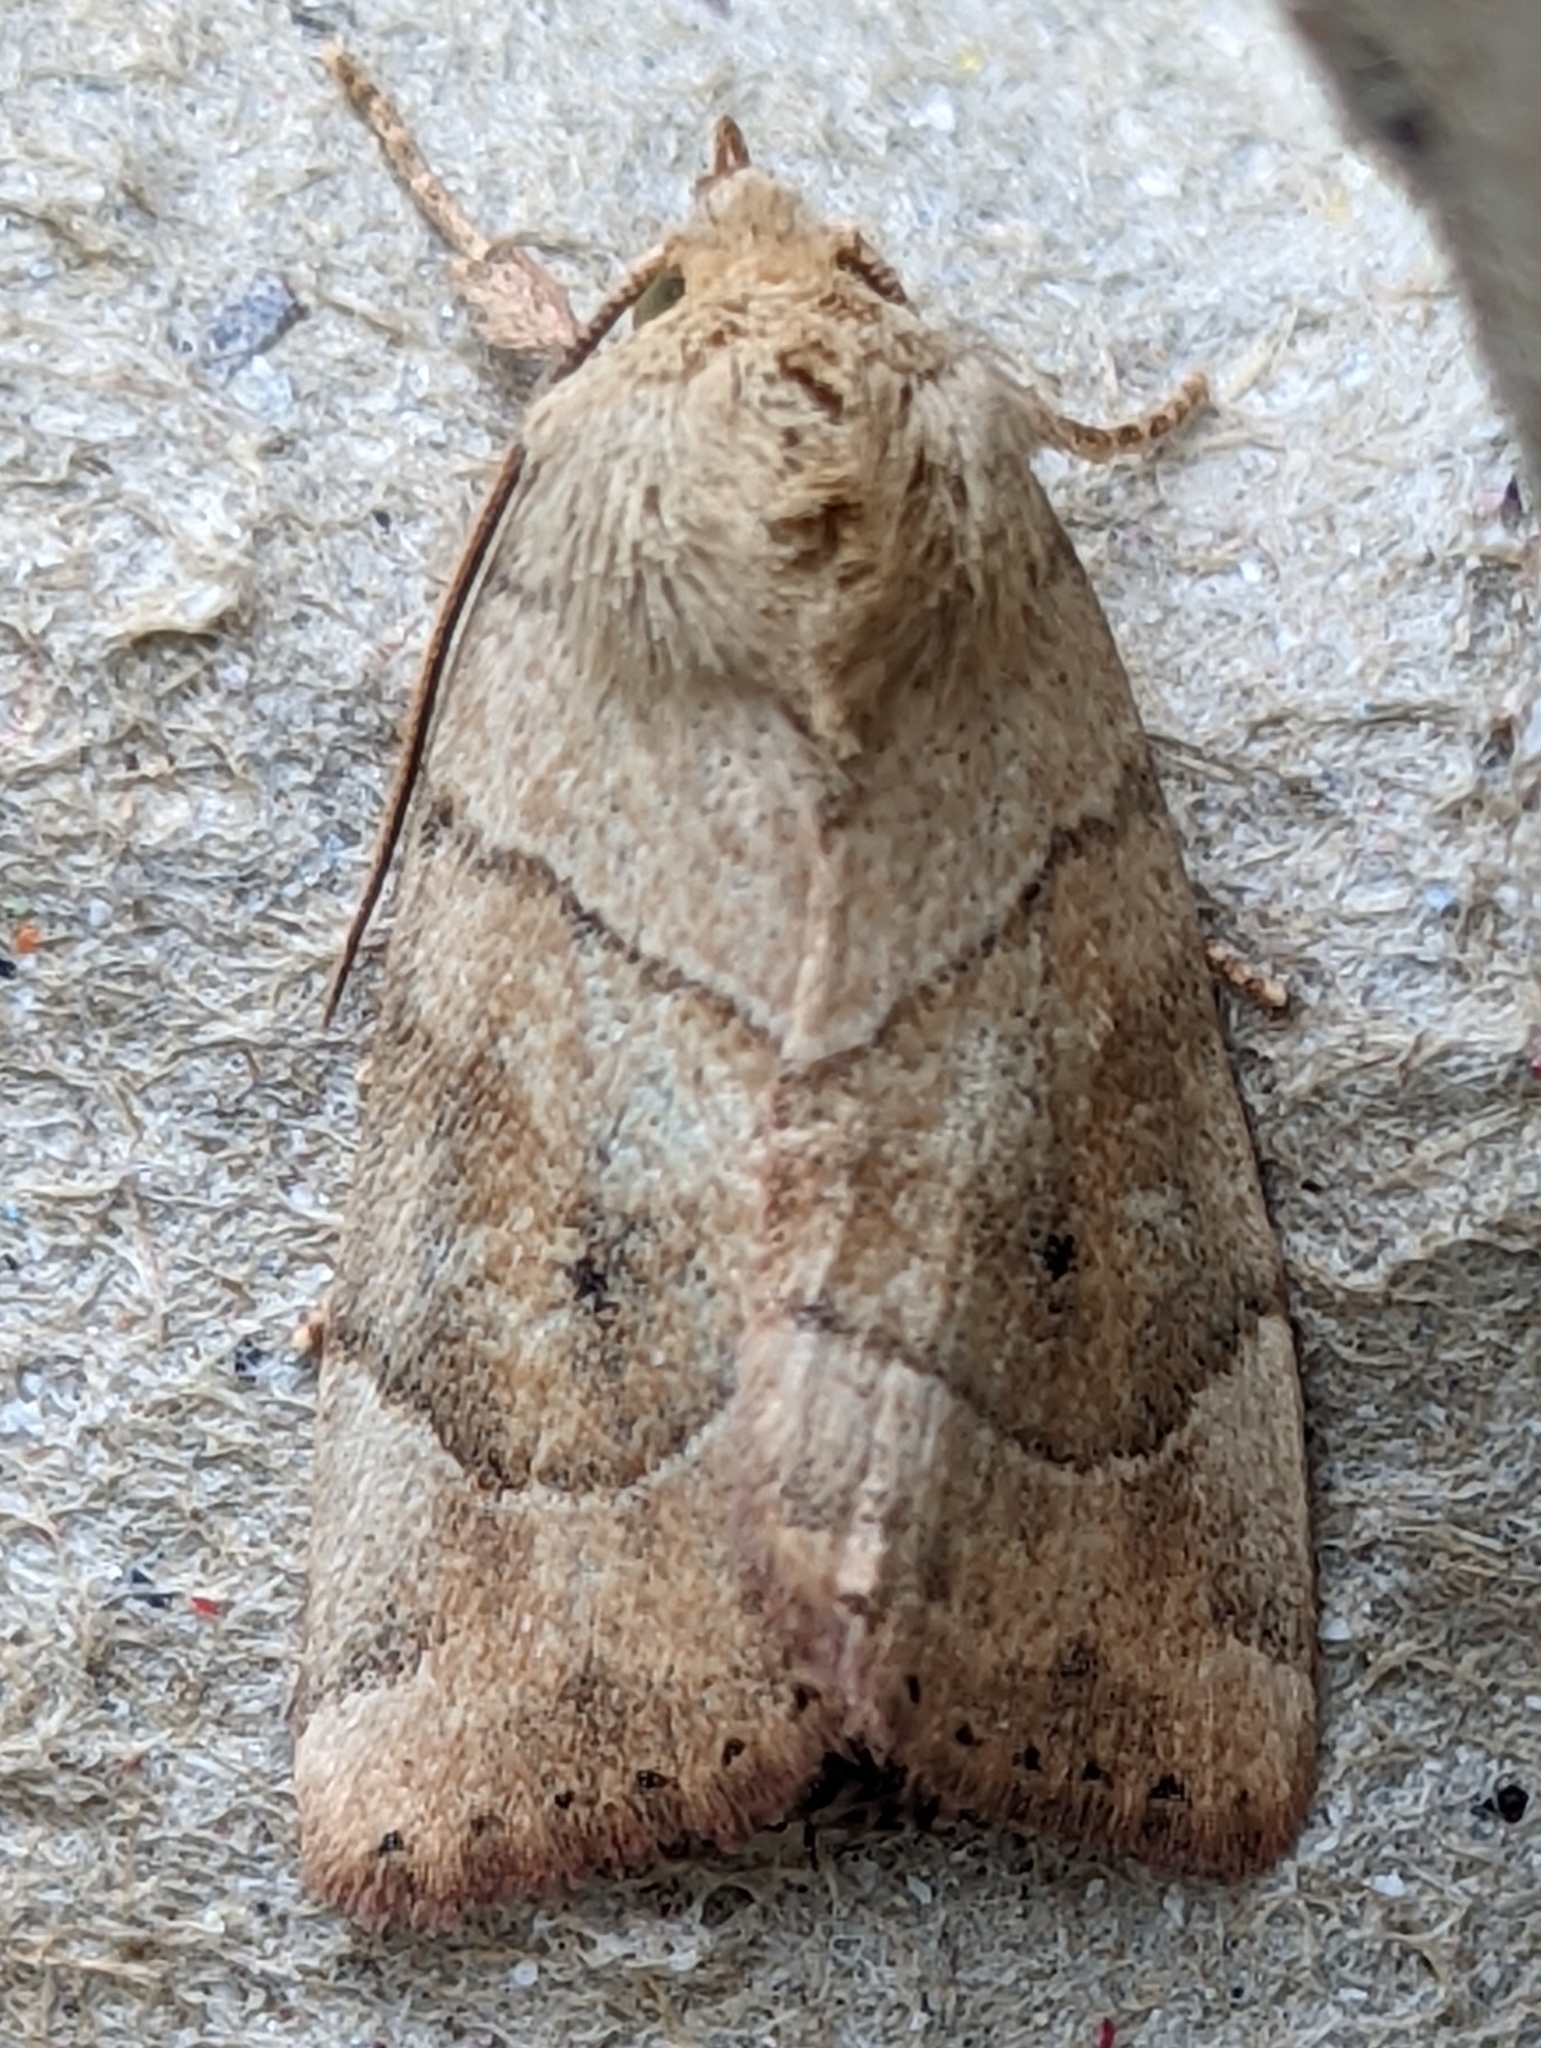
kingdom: Animalia
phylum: Arthropoda
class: Insecta
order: Lepidoptera
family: Noctuidae
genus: Cosmia
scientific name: Cosmia trapezina
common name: Dun-bar
